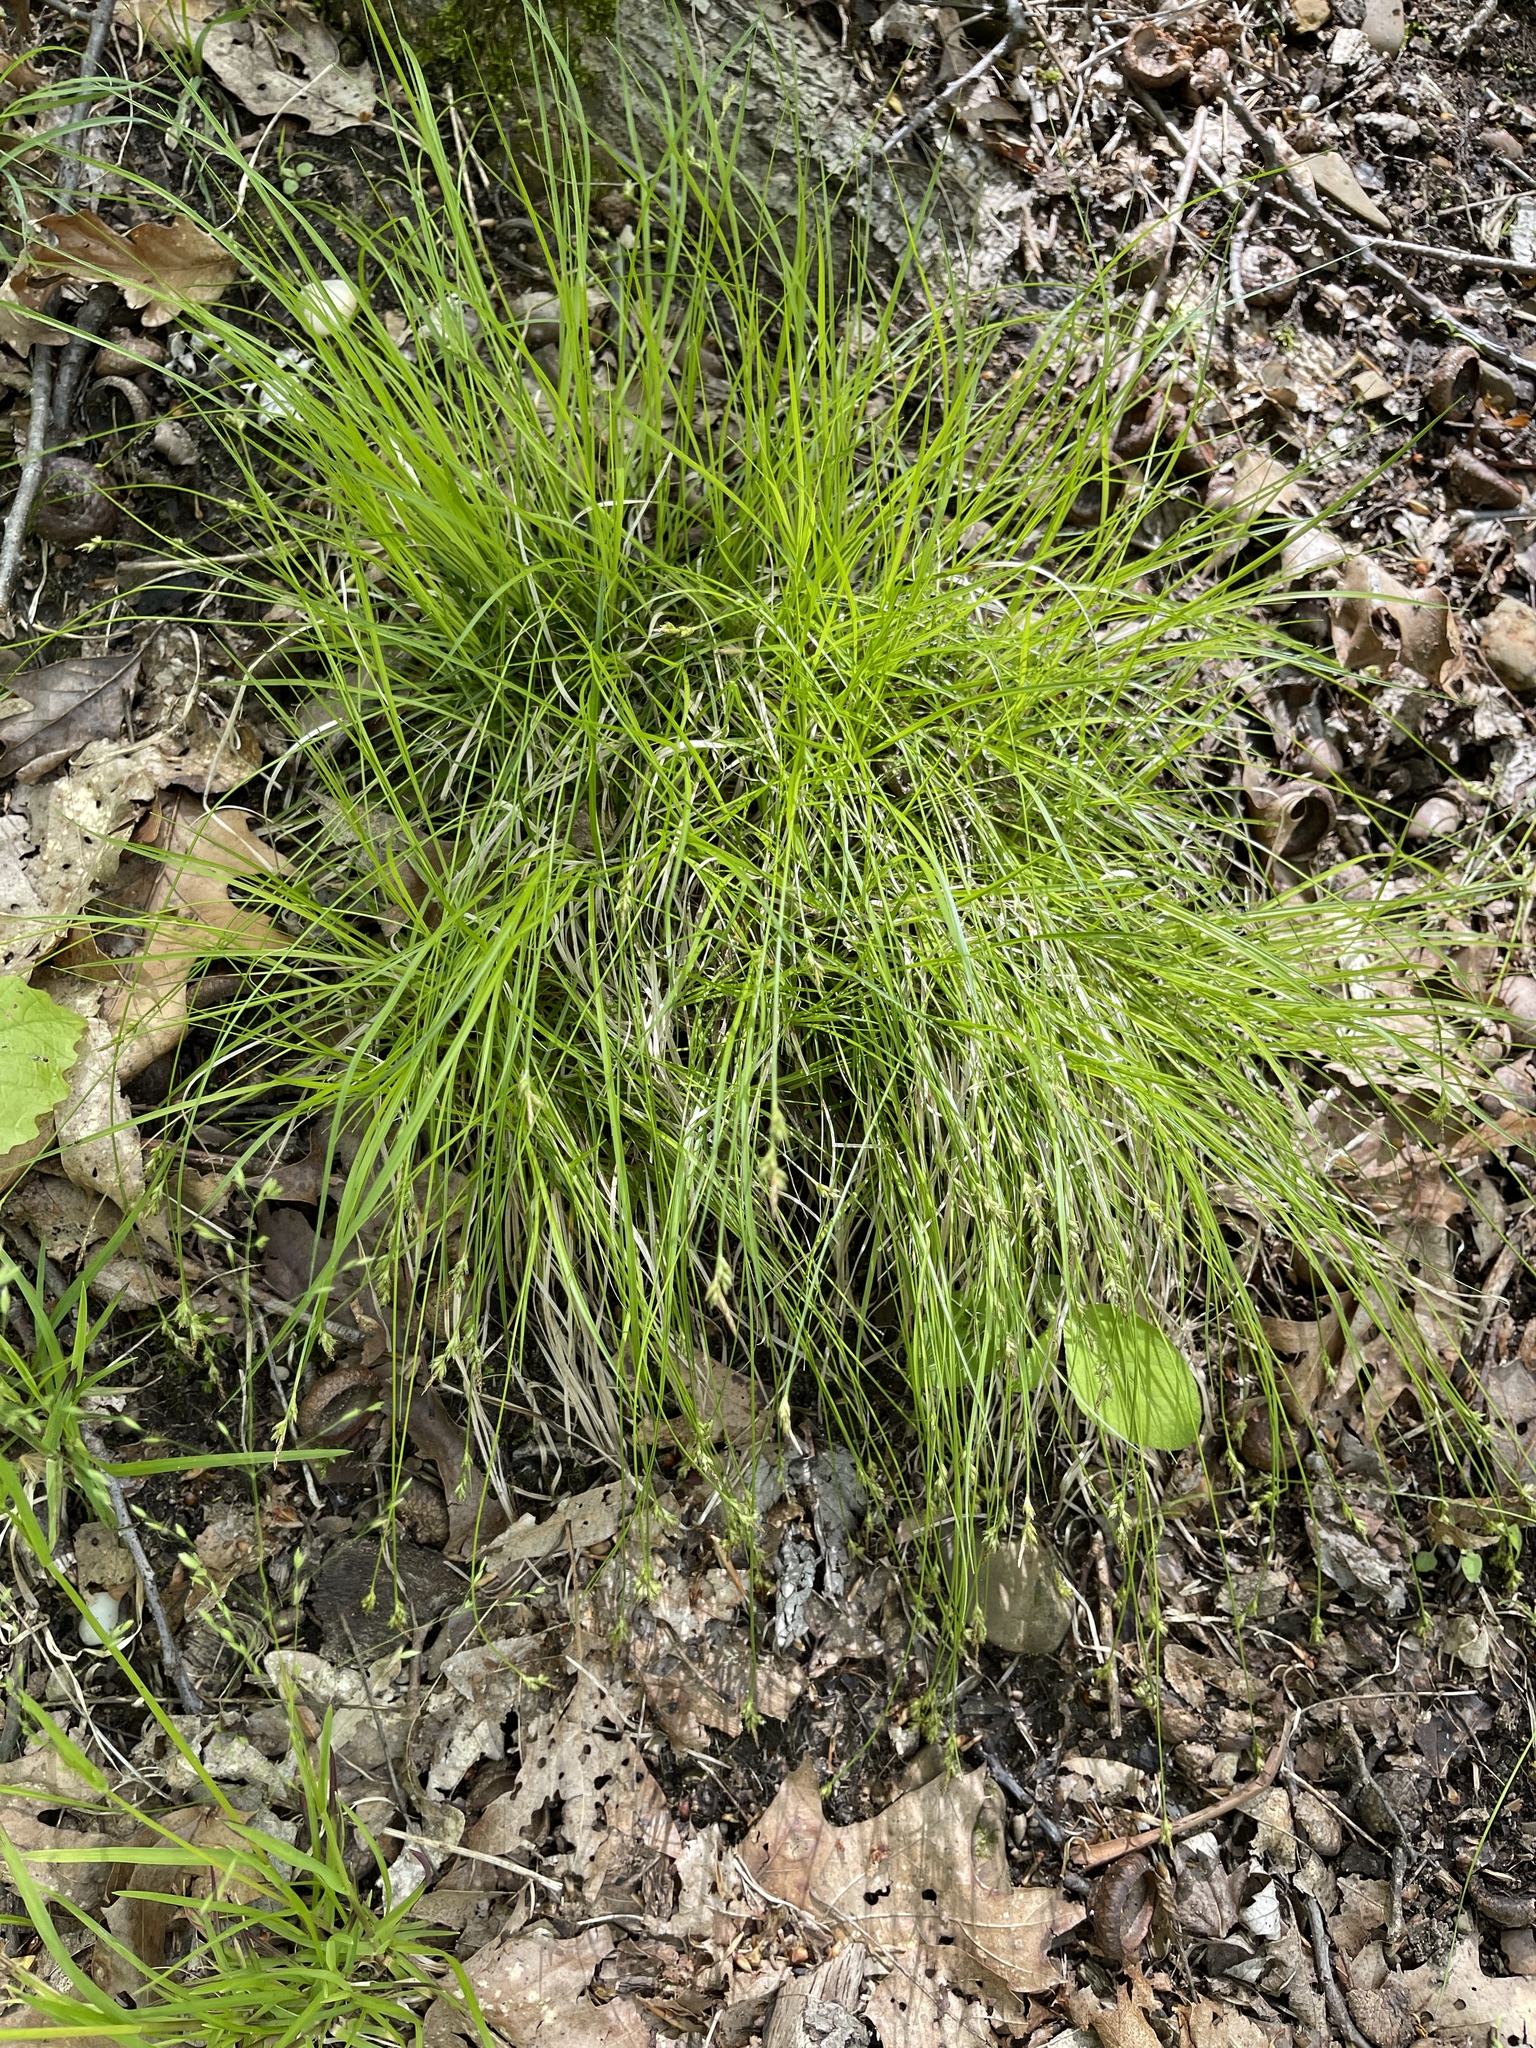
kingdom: Plantae
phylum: Tracheophyta
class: Liliopsida
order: Poales
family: Cyperaceae
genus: Carex
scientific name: Carex albicans
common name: Bellow-beaked sedge
